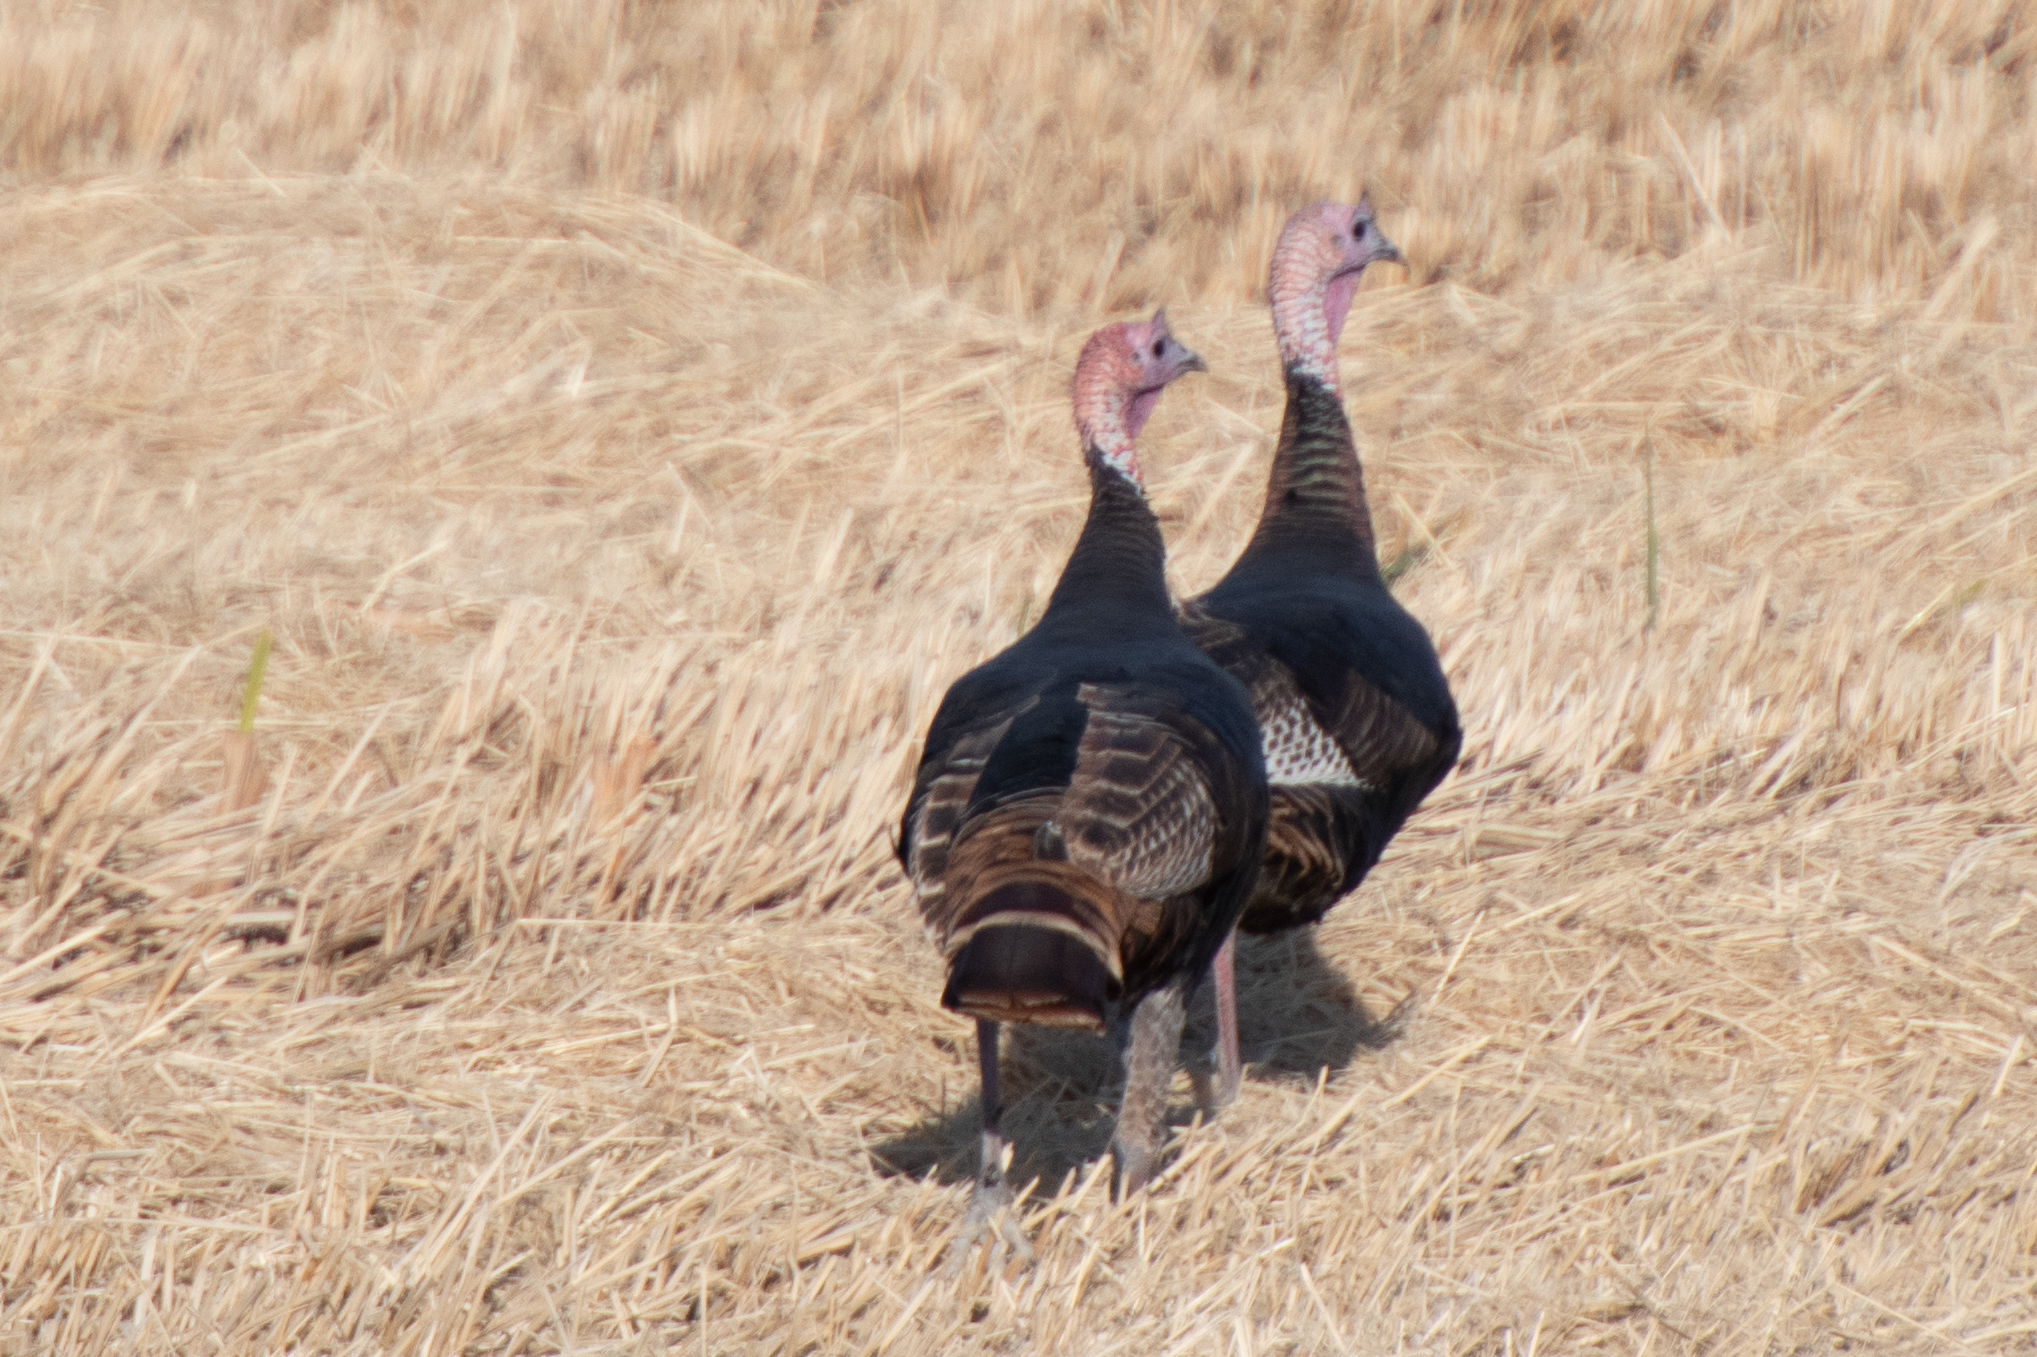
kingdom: Animalia
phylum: Chordata
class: Aves
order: Galliformes
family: Phasianidae
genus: Meleagris
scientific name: Meleagris gallopavo
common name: Wild turkey
